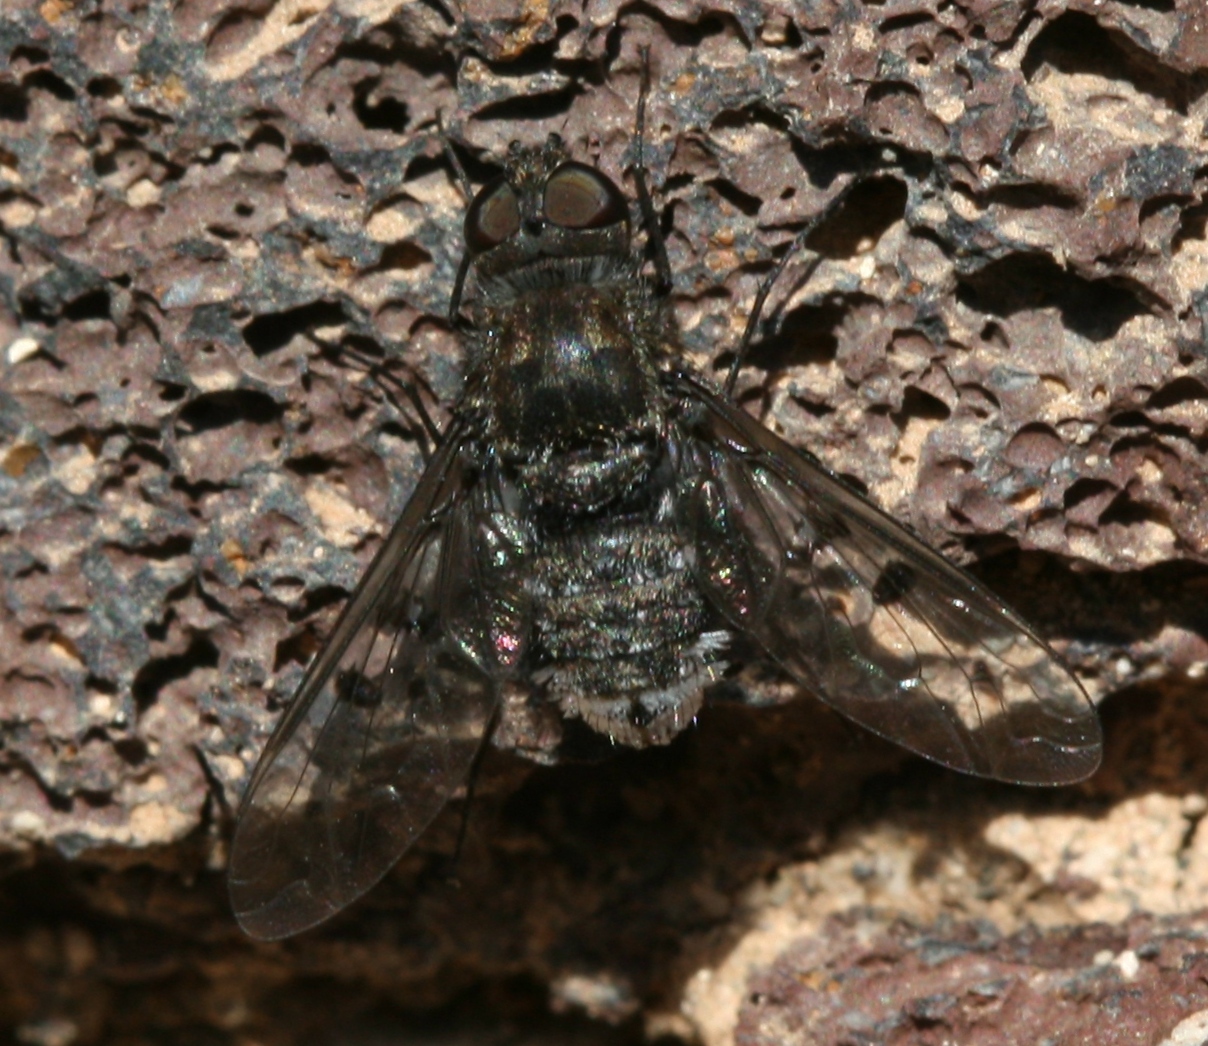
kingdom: Animalia
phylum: Arthropoda
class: Insecta
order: Diptera
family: Bombyliidae
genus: Anthrax
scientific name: Anthrax bowdeni
